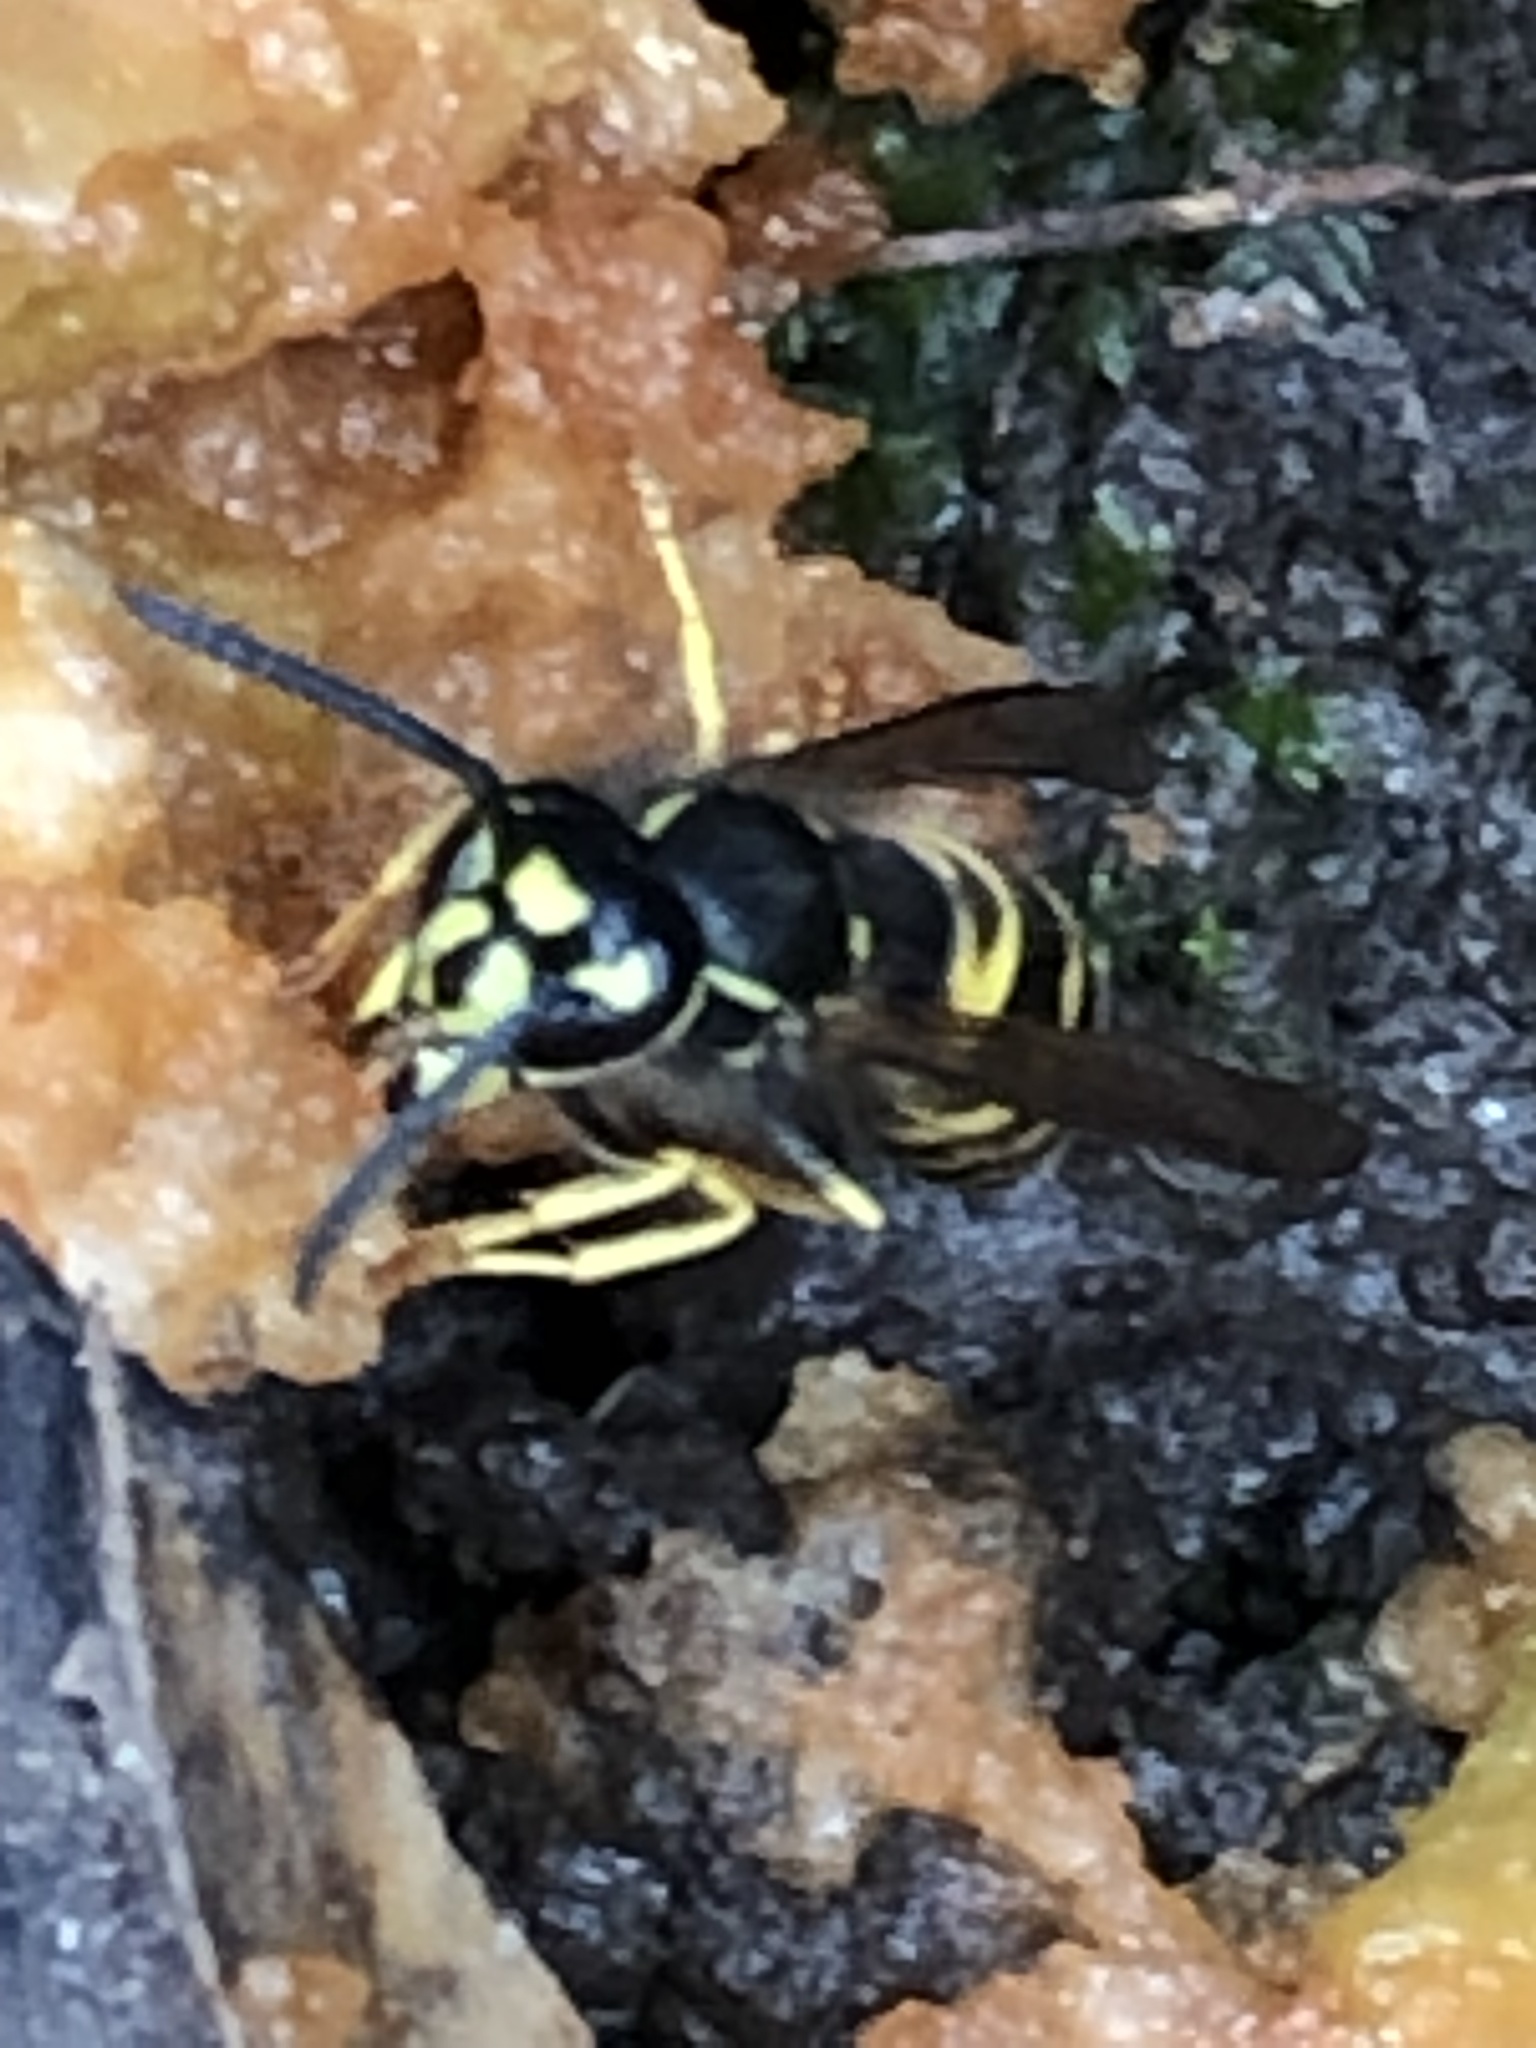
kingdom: Animalia
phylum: Arthropoda
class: Insecta
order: Hymenoptera
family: Vespidae
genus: Vespula
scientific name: Vespula alascensis
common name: Alaska yellowjacket
